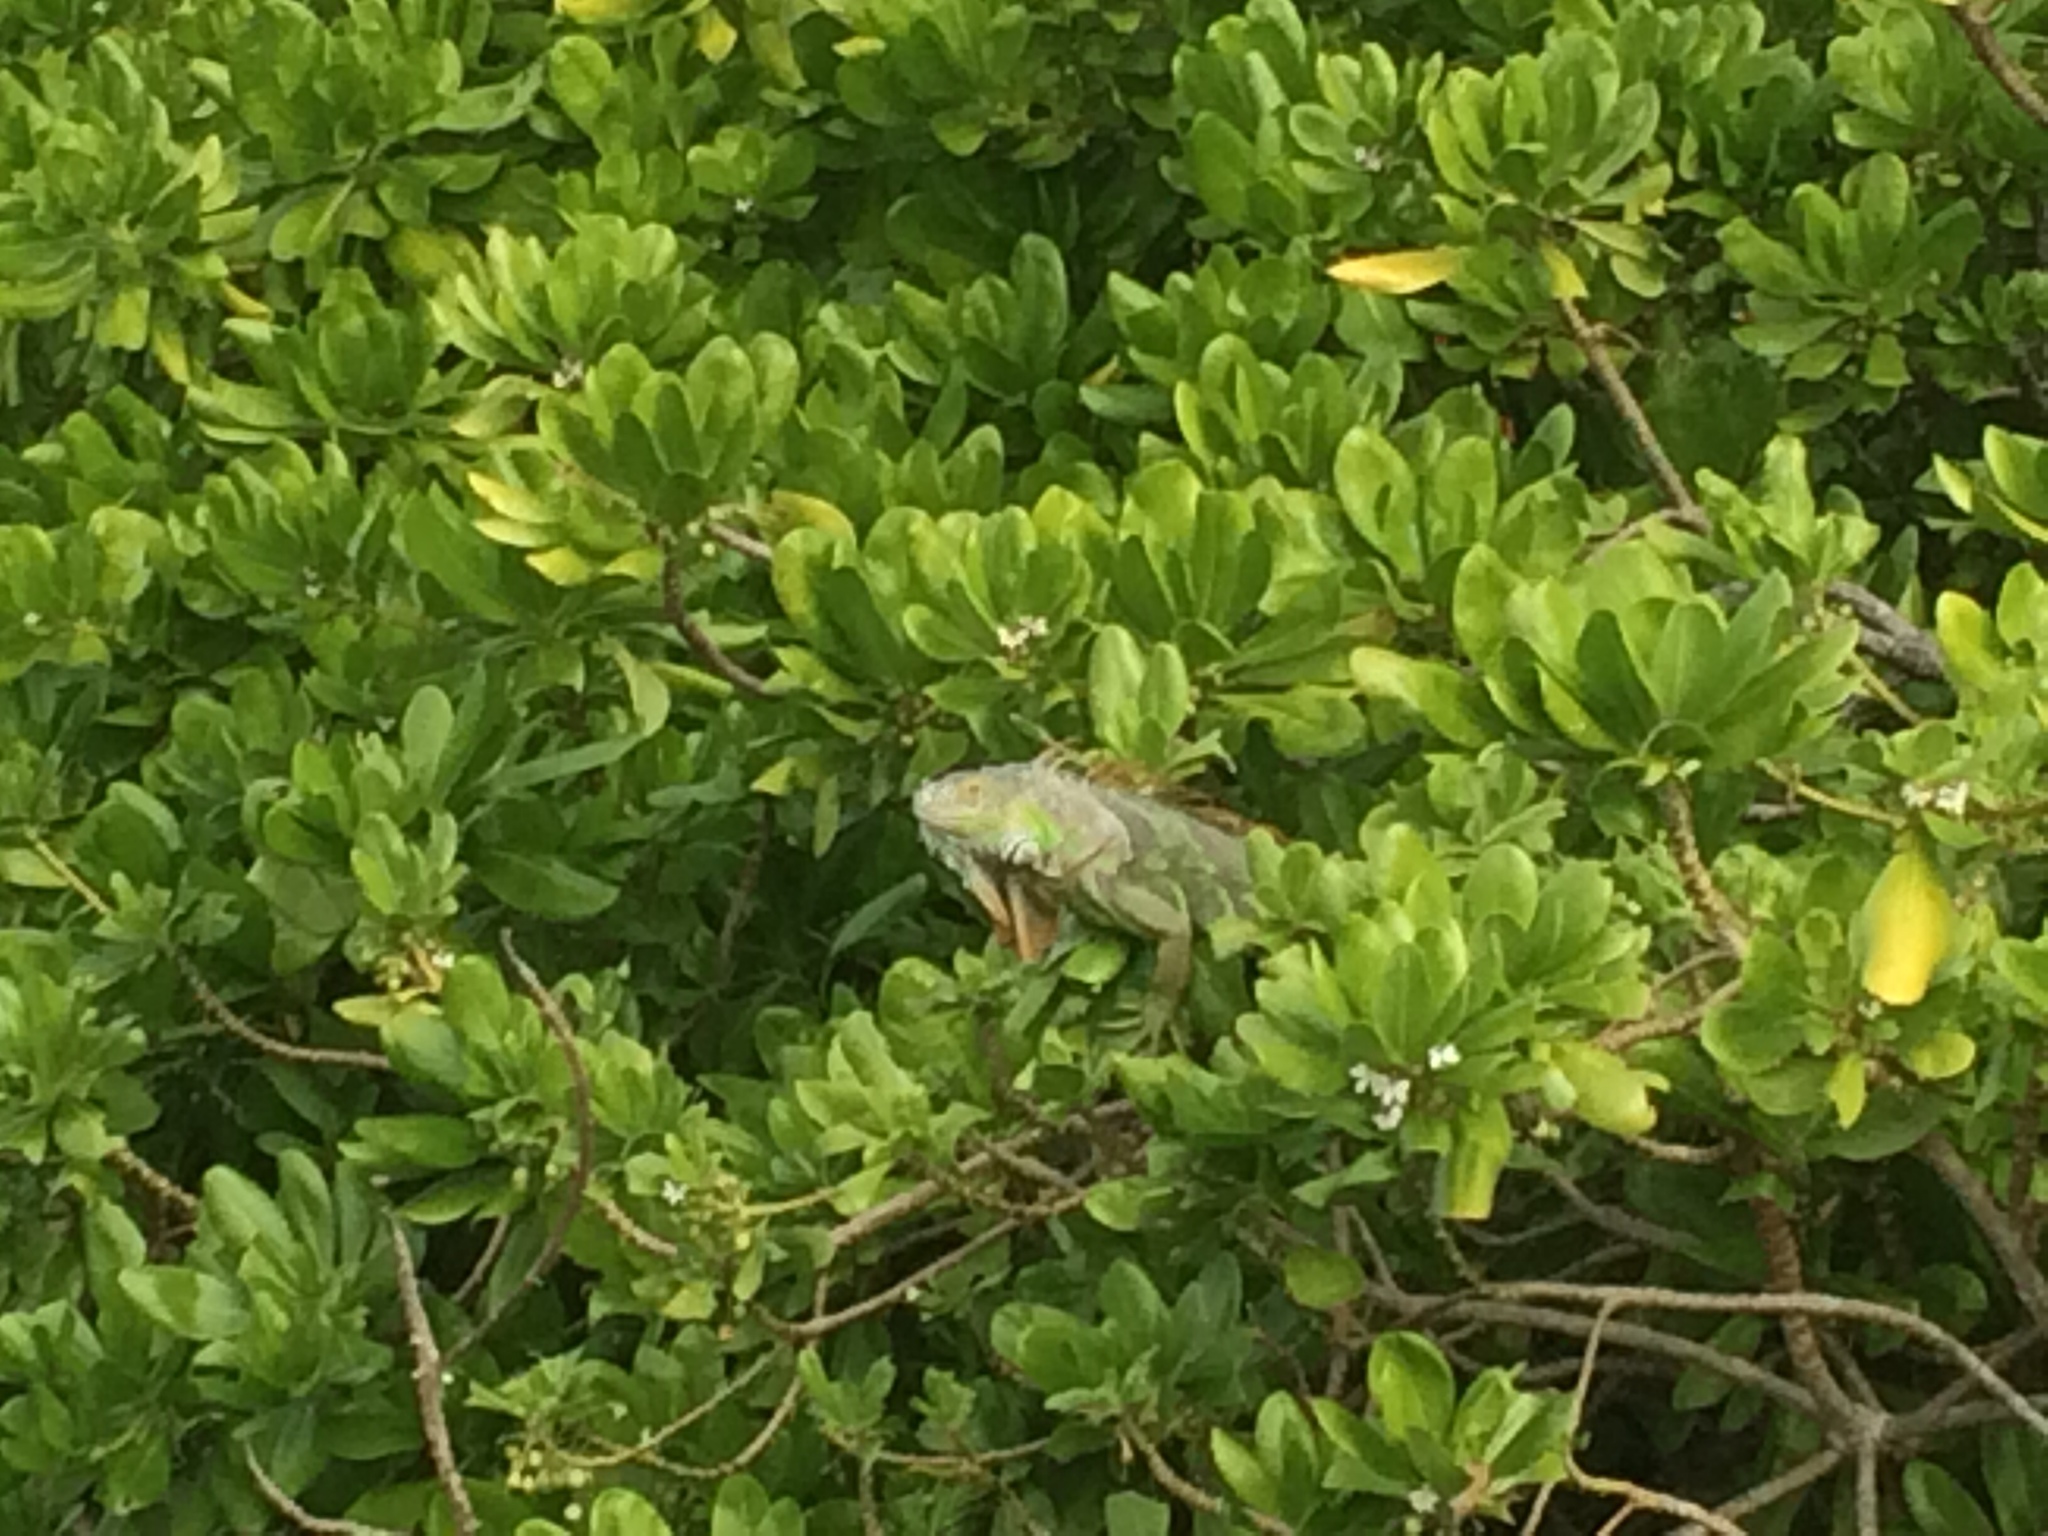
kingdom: Animalia
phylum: Chordata
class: Squamata
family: Iguanidae
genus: Iguana
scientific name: Iguana iguana
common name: Green iguana
